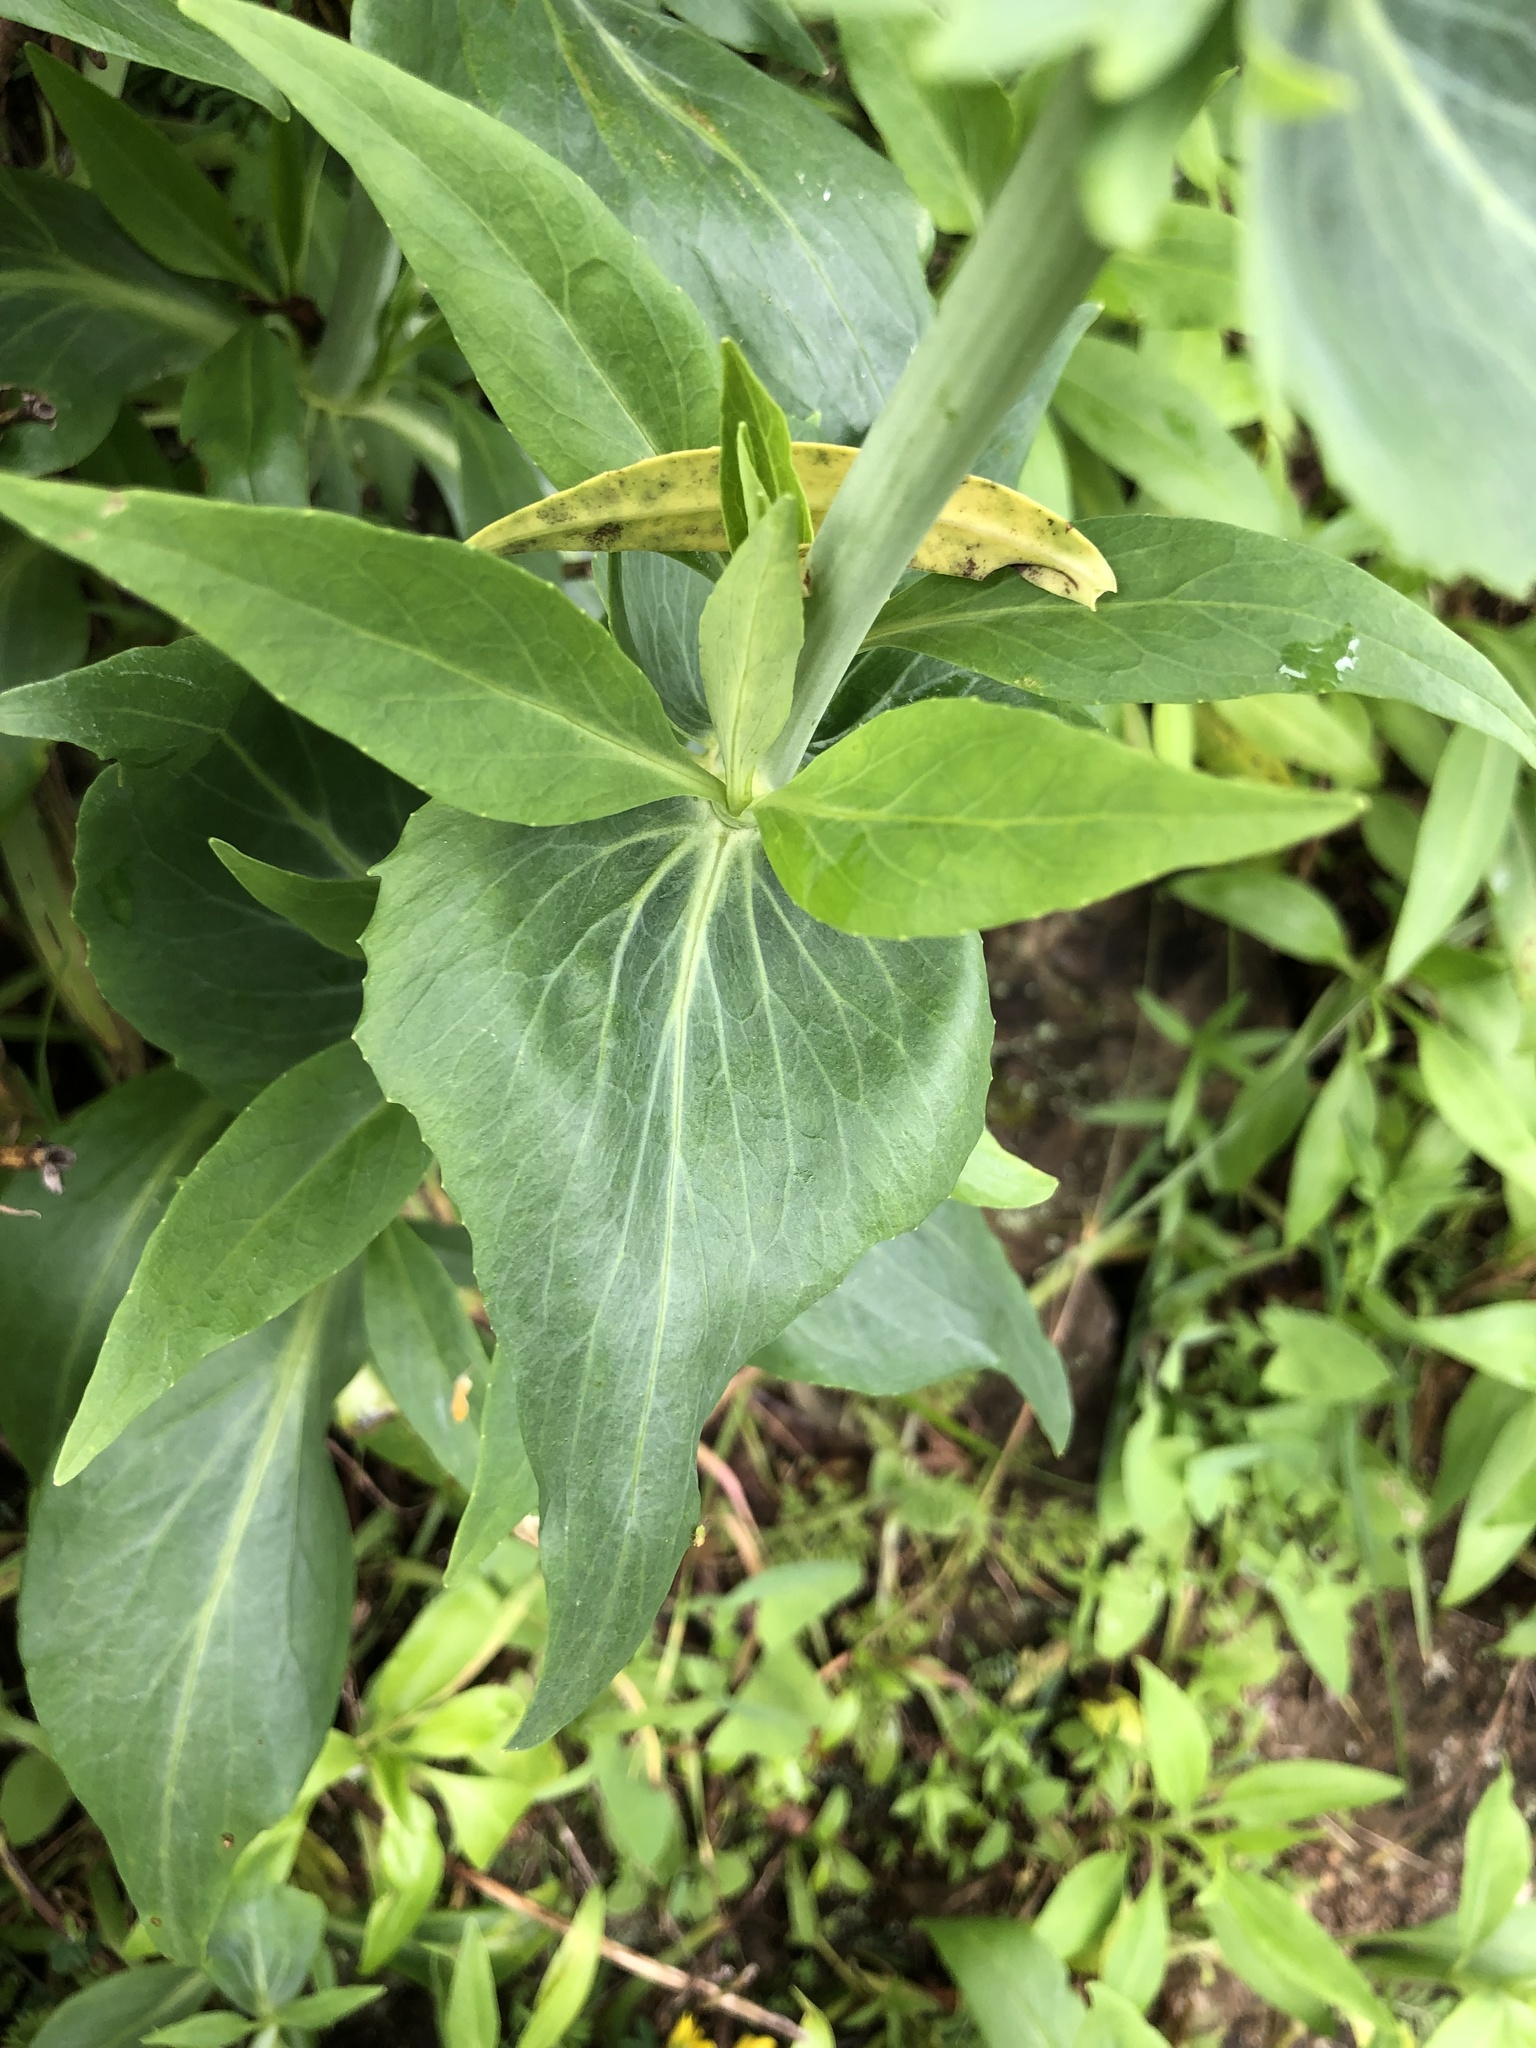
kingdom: Plantae
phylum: Tracheophyta
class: Magnoliopsida
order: Dipsacales
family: Caprifoliaceae
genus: Centranthus
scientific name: Centranthus ruber
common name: Red valerian
